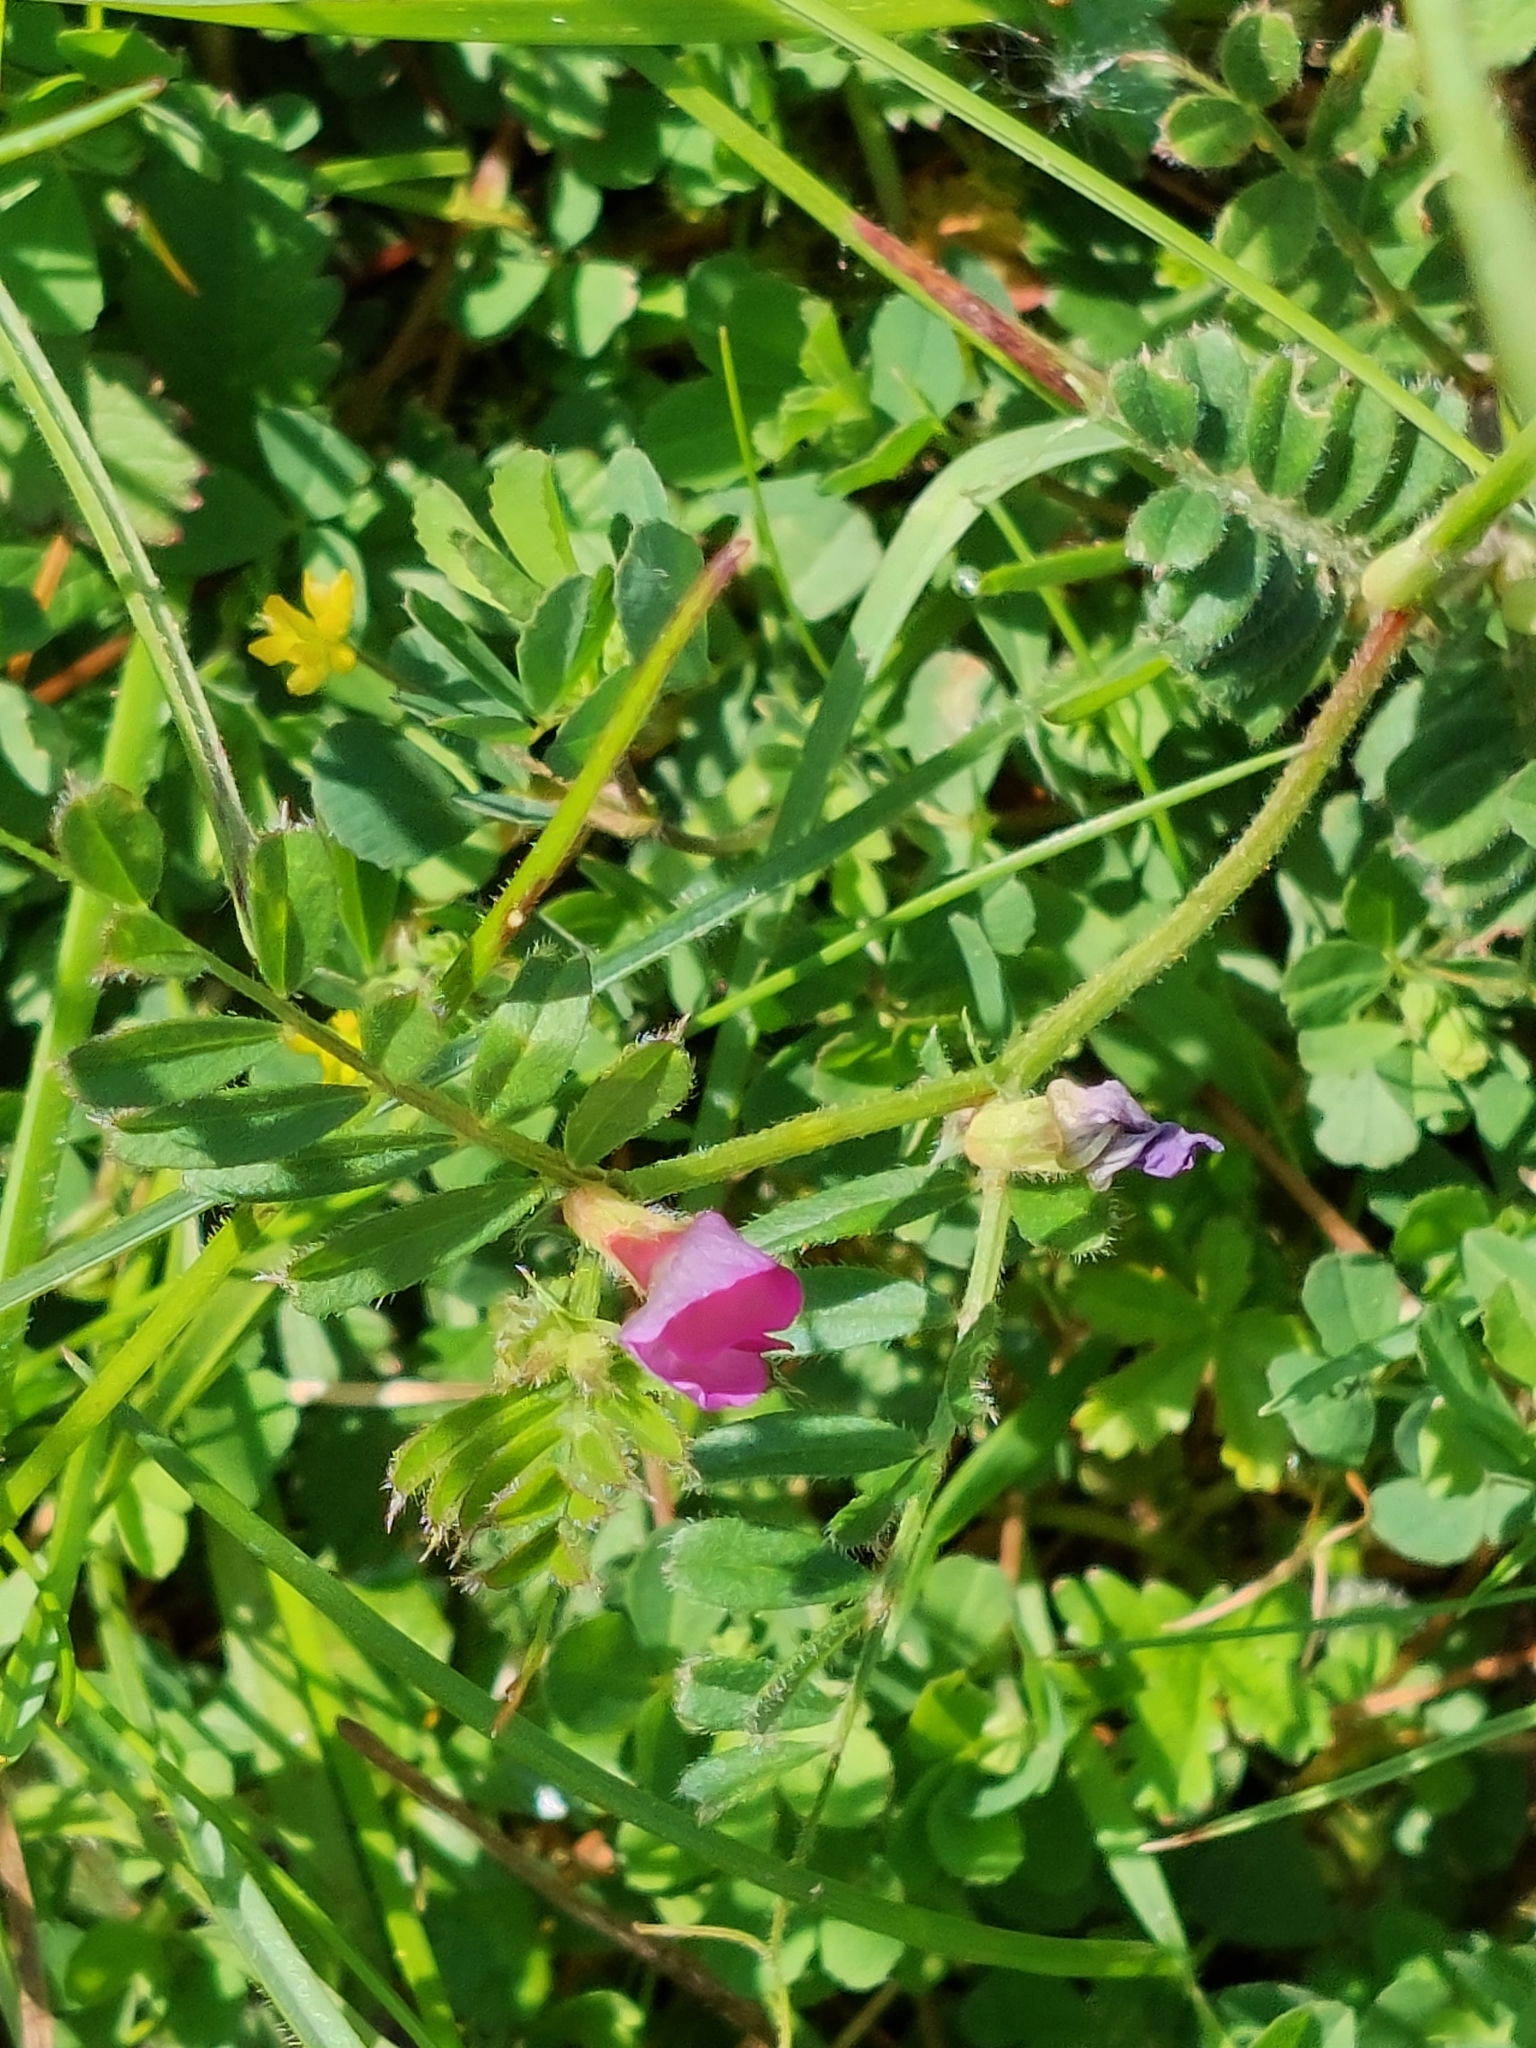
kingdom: Plantae
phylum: Tracheophyta
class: Magnoliopsida
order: Fabales
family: Fabaceae
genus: Vicia
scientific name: Vicia sativa
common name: Garden vetch
